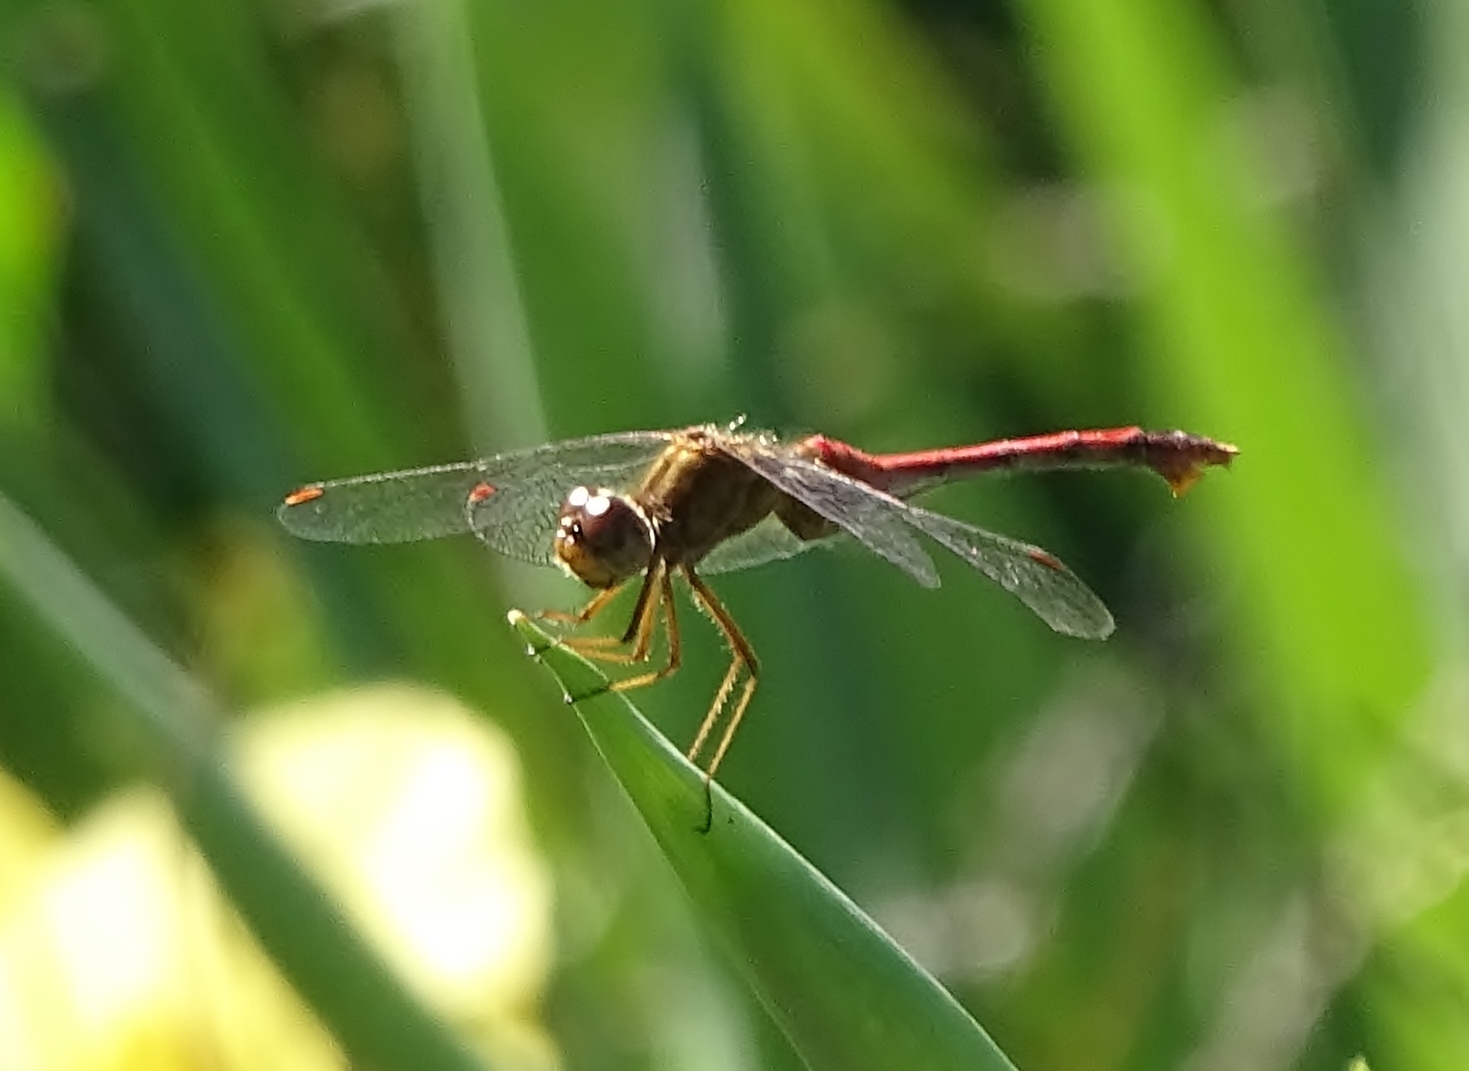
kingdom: Animalia
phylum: Arthropoda
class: Insecta
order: Odonata
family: Libellulidae
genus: Sympetrum
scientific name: Sympetrum vicinum
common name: Autumn meadowhawk
